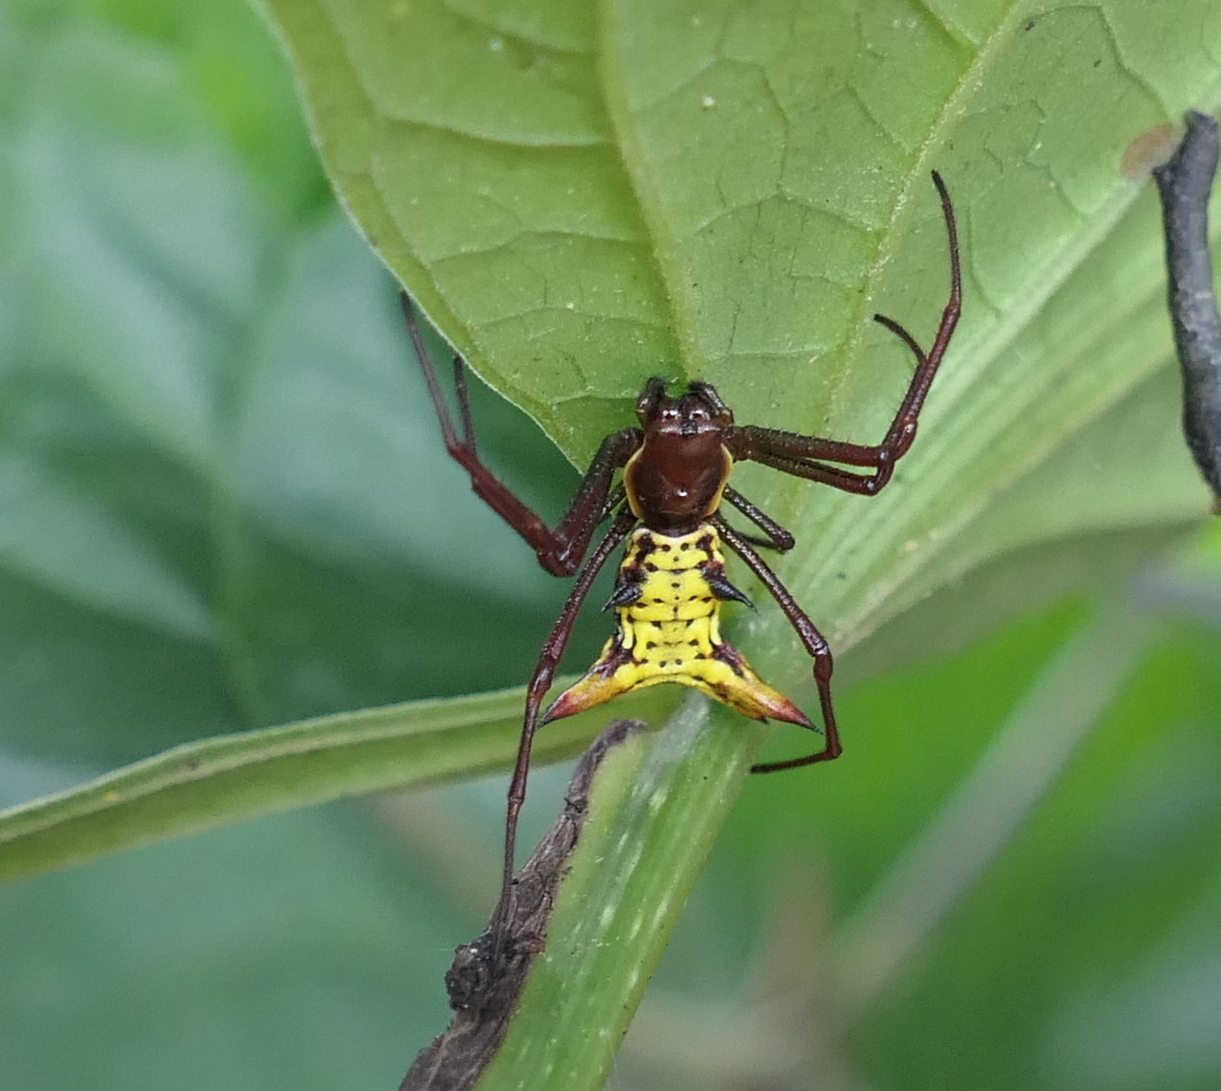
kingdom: Animalia
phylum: Arthropoda
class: Arachnida
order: Araneae
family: Araneidae
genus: Micrathena
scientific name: Micrathena fissispina
